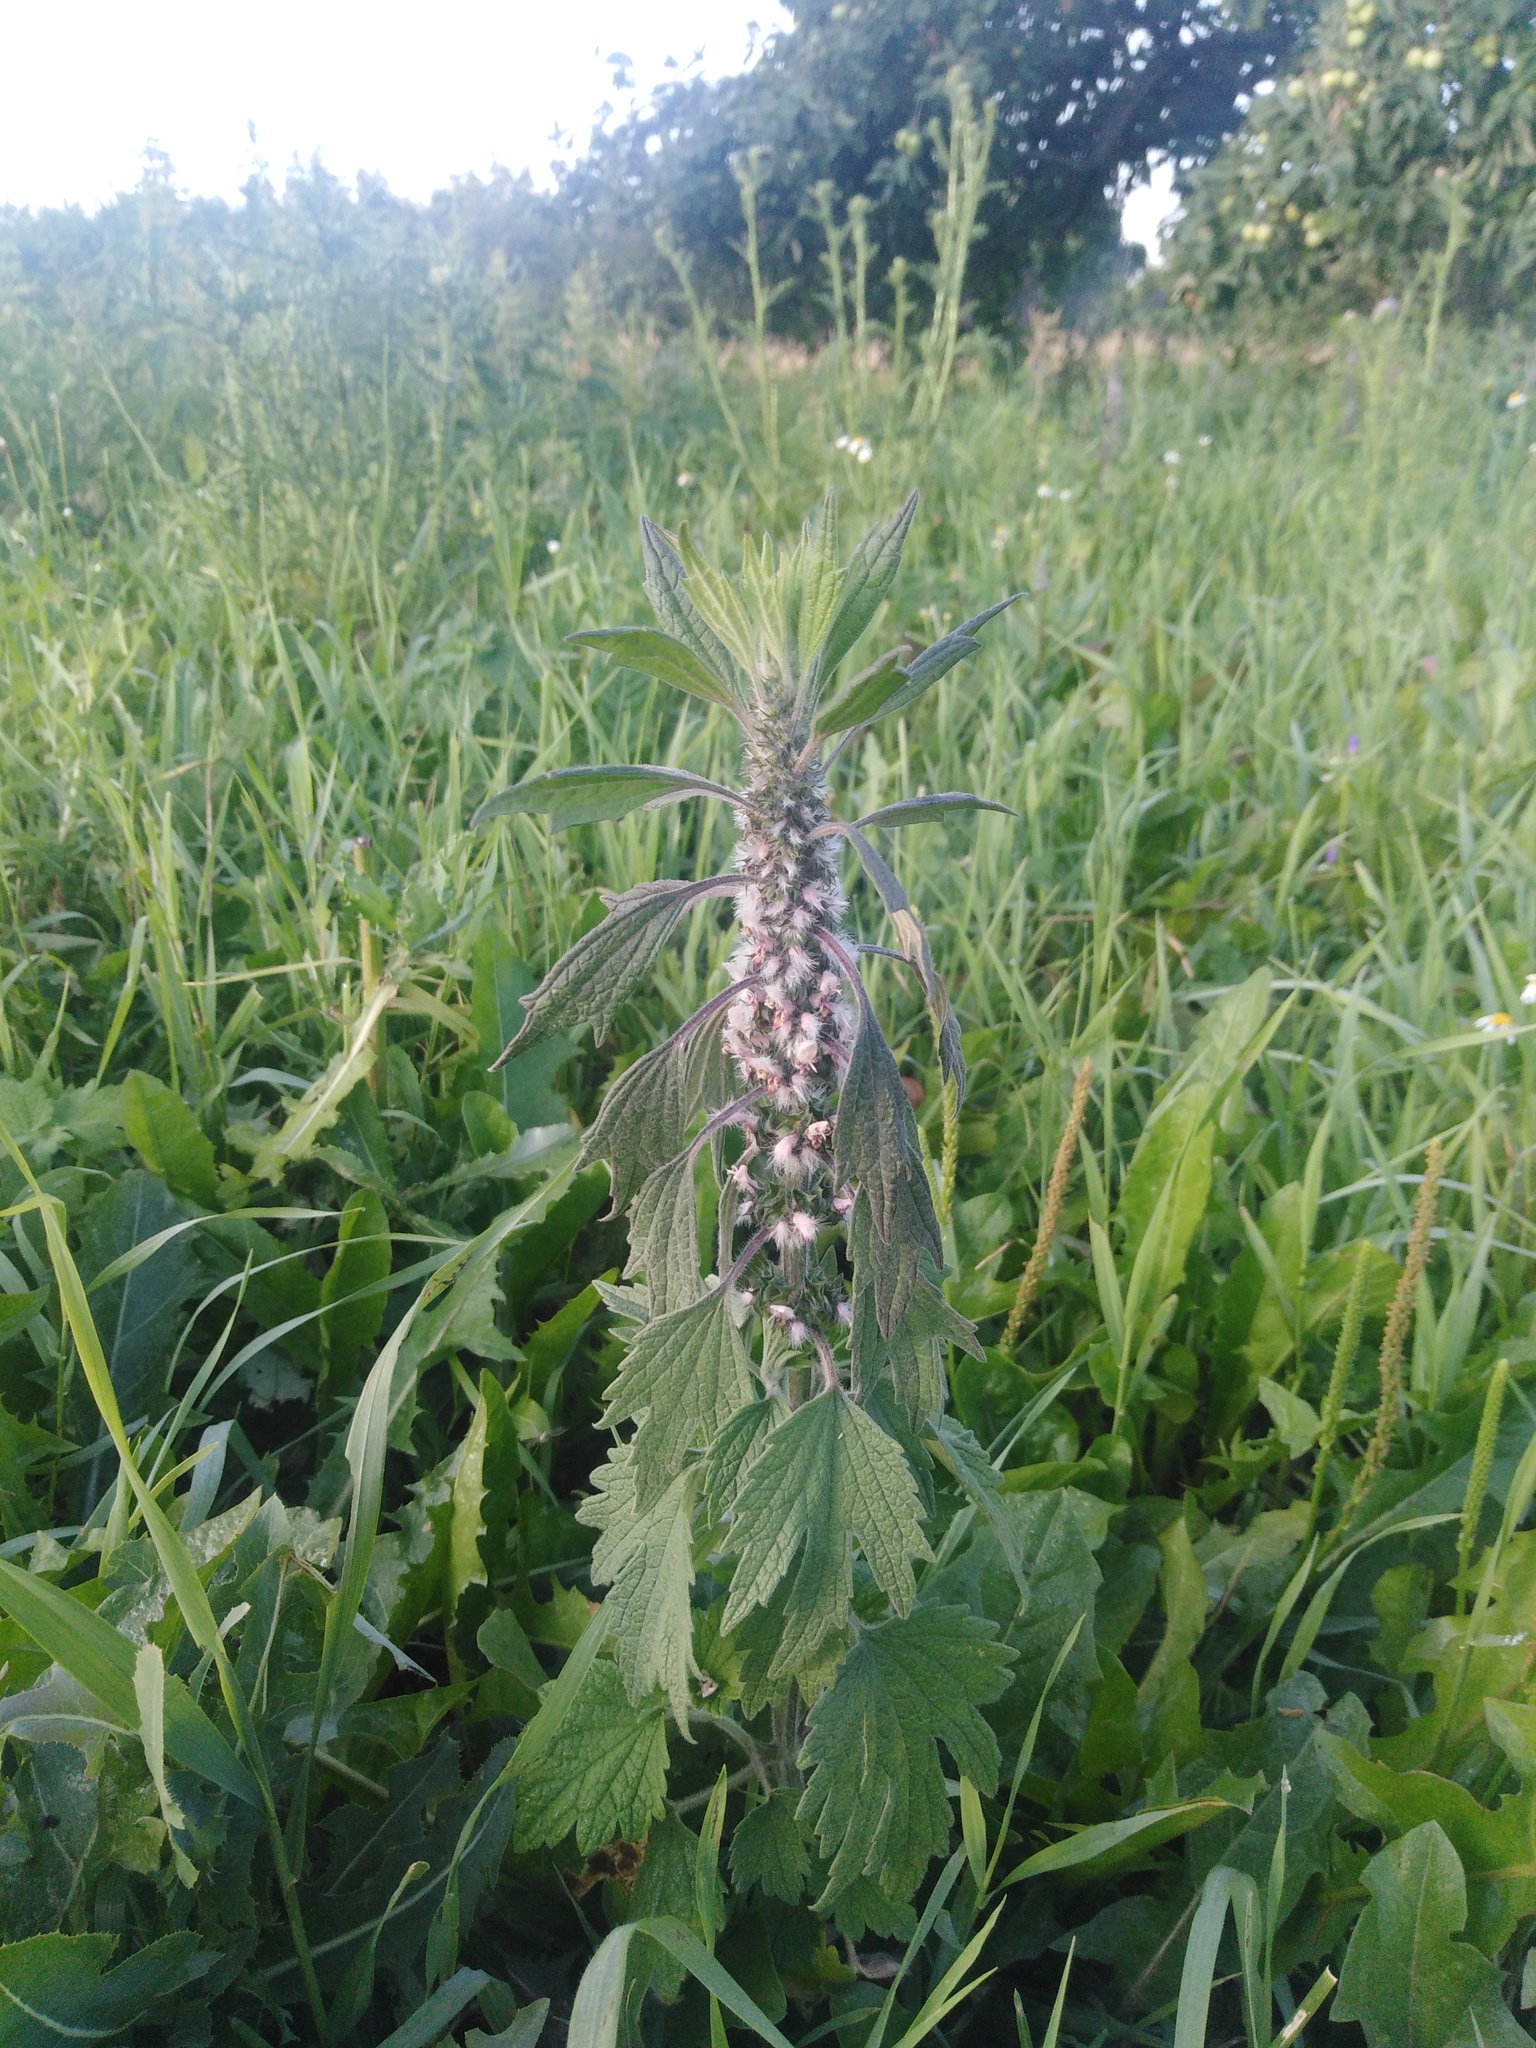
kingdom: Plantae
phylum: Tracheophyta
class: Magnoliopsida
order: Lamiales
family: Lamiaceae
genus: Leonurus
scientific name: Leonurus quinquelobatus
